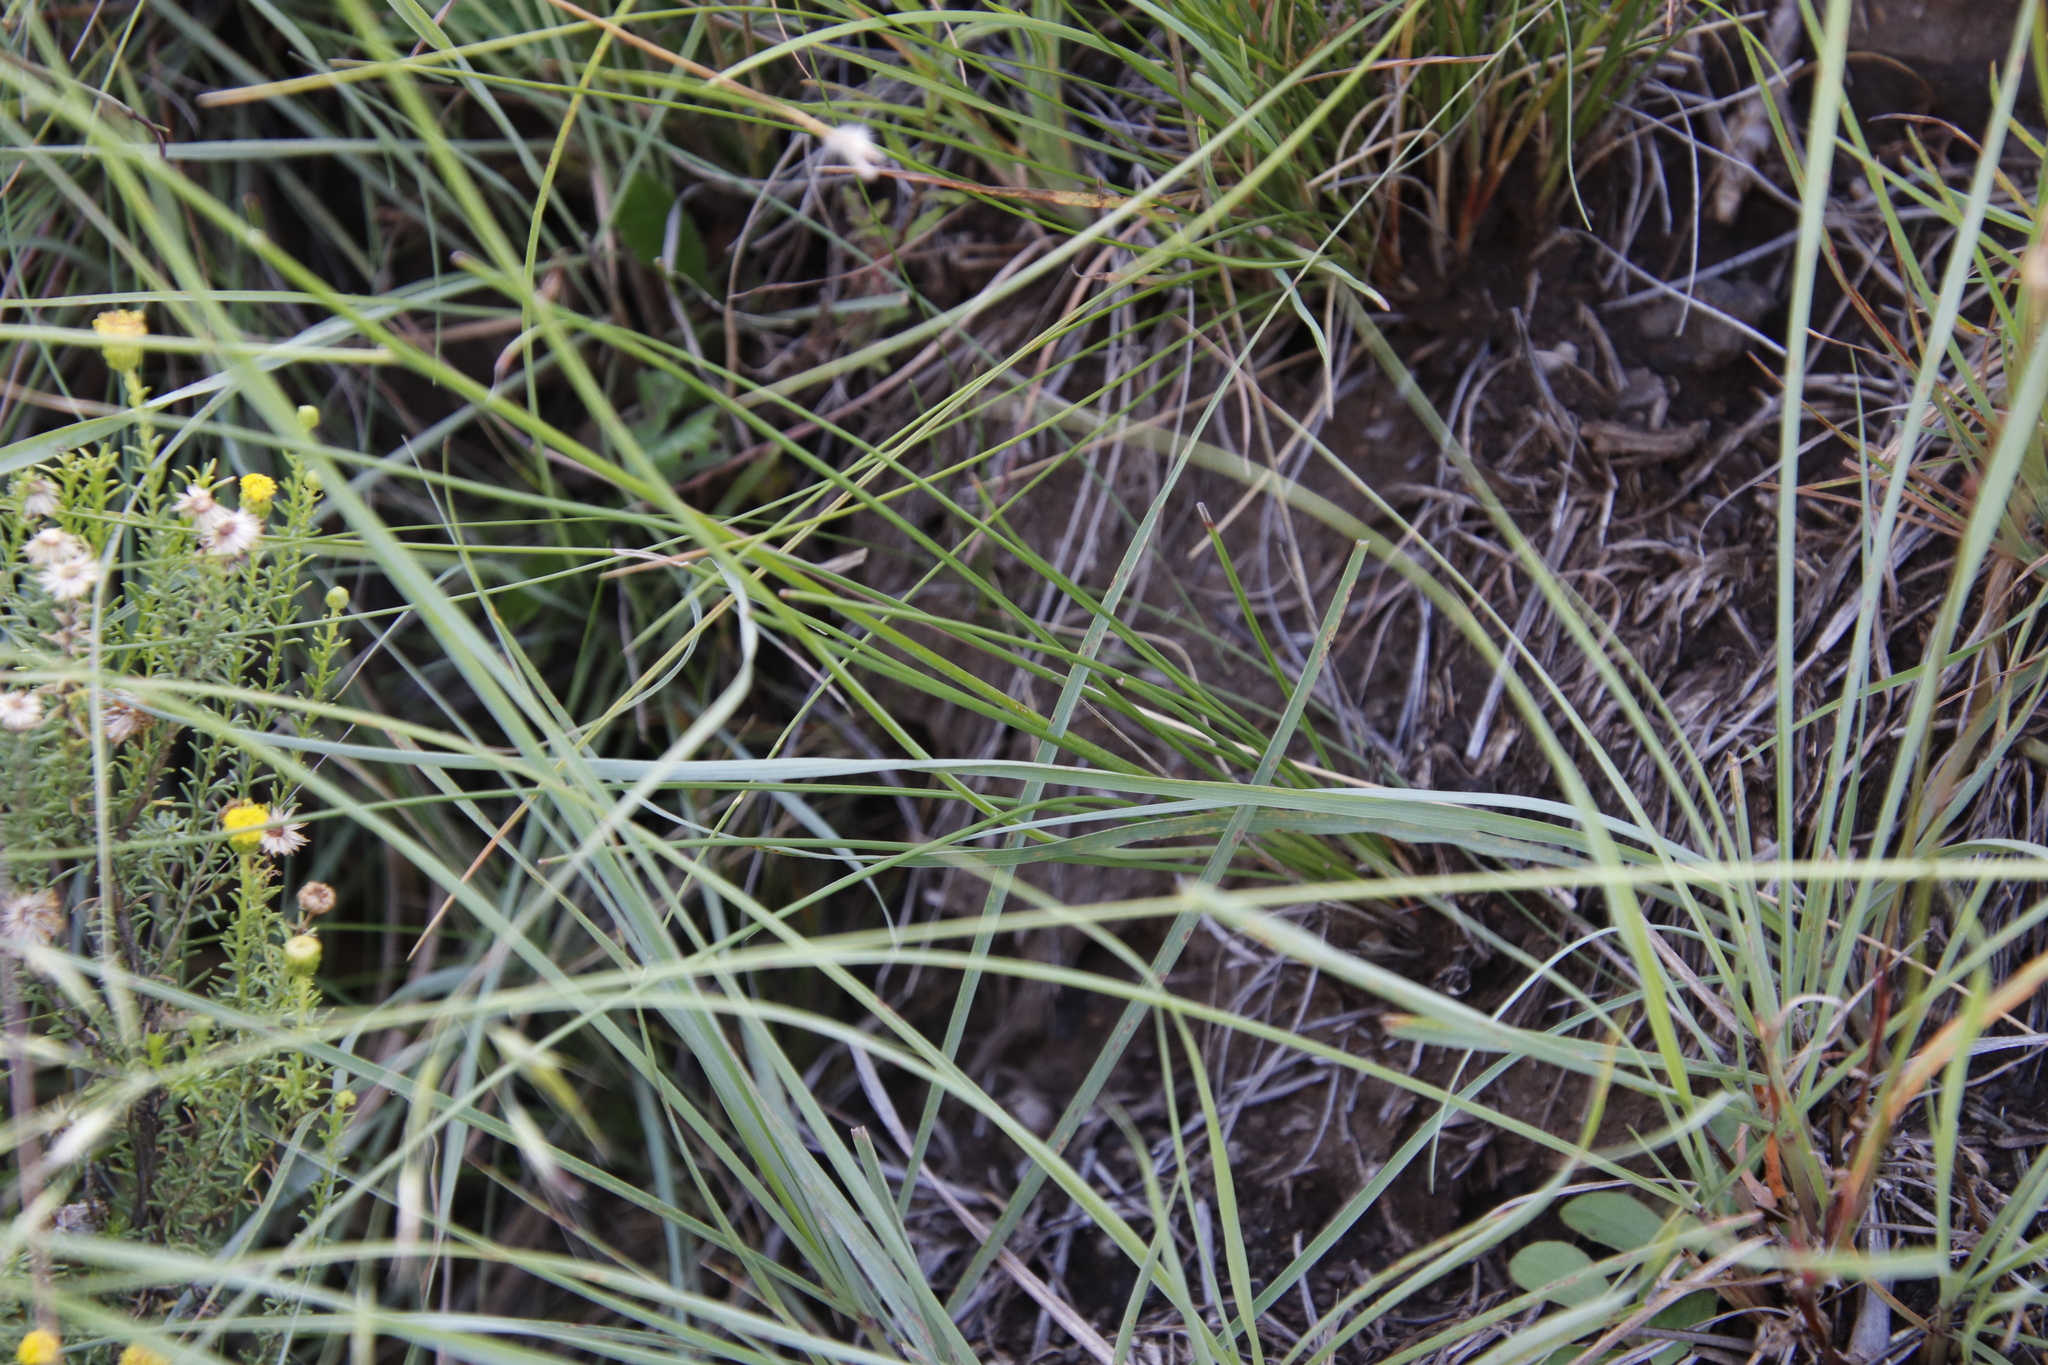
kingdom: Plantae
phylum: Tracheophyta
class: Liliopsida
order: Asparagales
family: Asphodelaceae
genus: Trachyandra
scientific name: Trachyandra asperata
